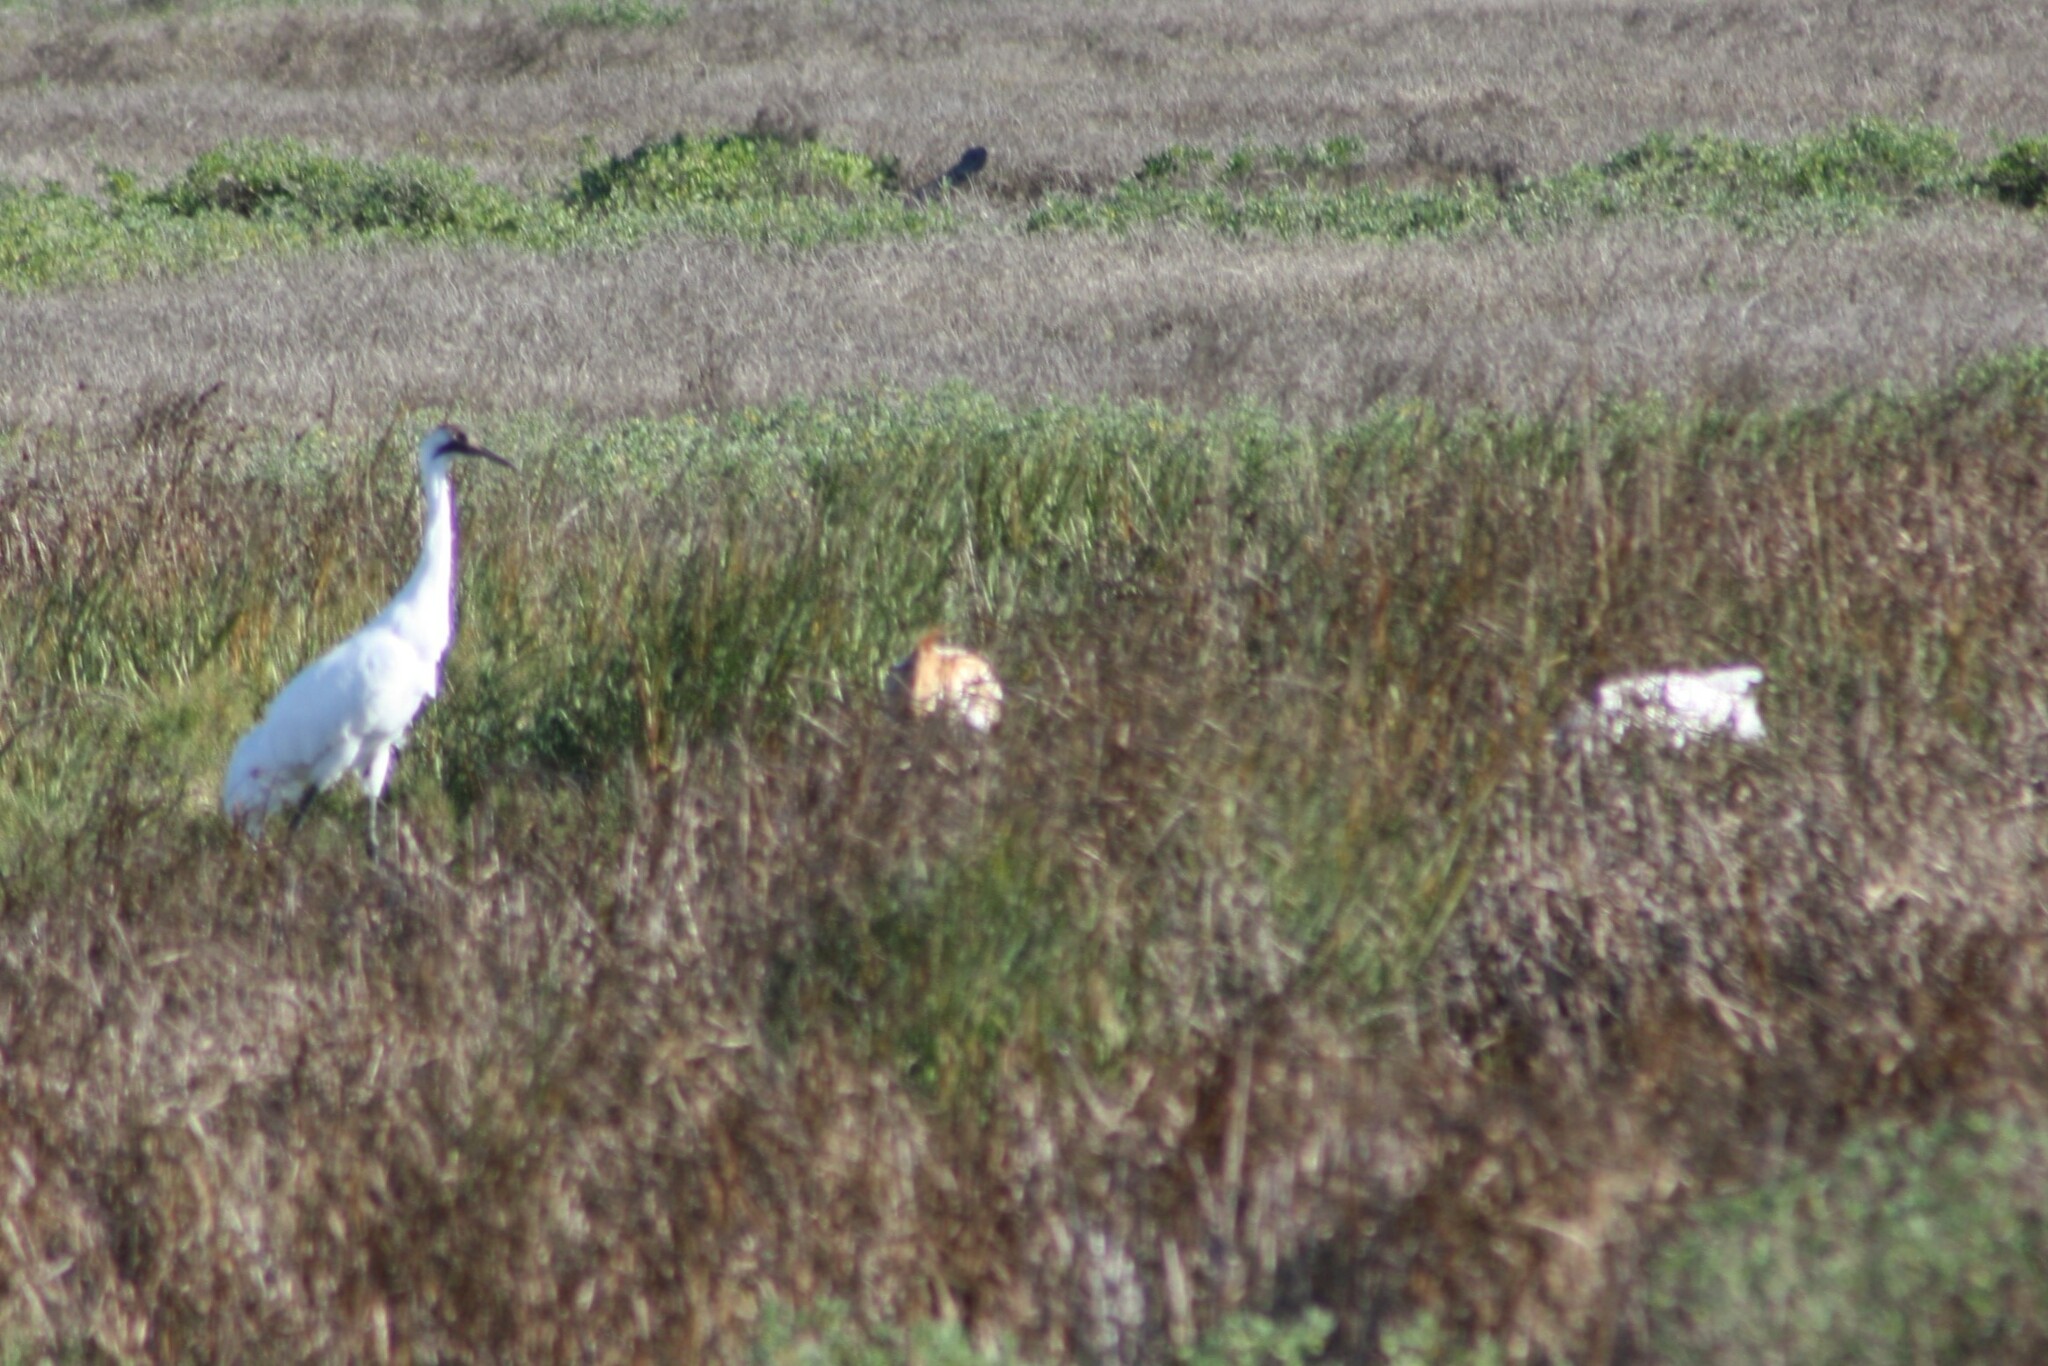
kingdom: Animalia
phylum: Chordata
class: Aves
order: Gruiformes
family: Gruidae
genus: Grus
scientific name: Grus americana
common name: Whooping crane
